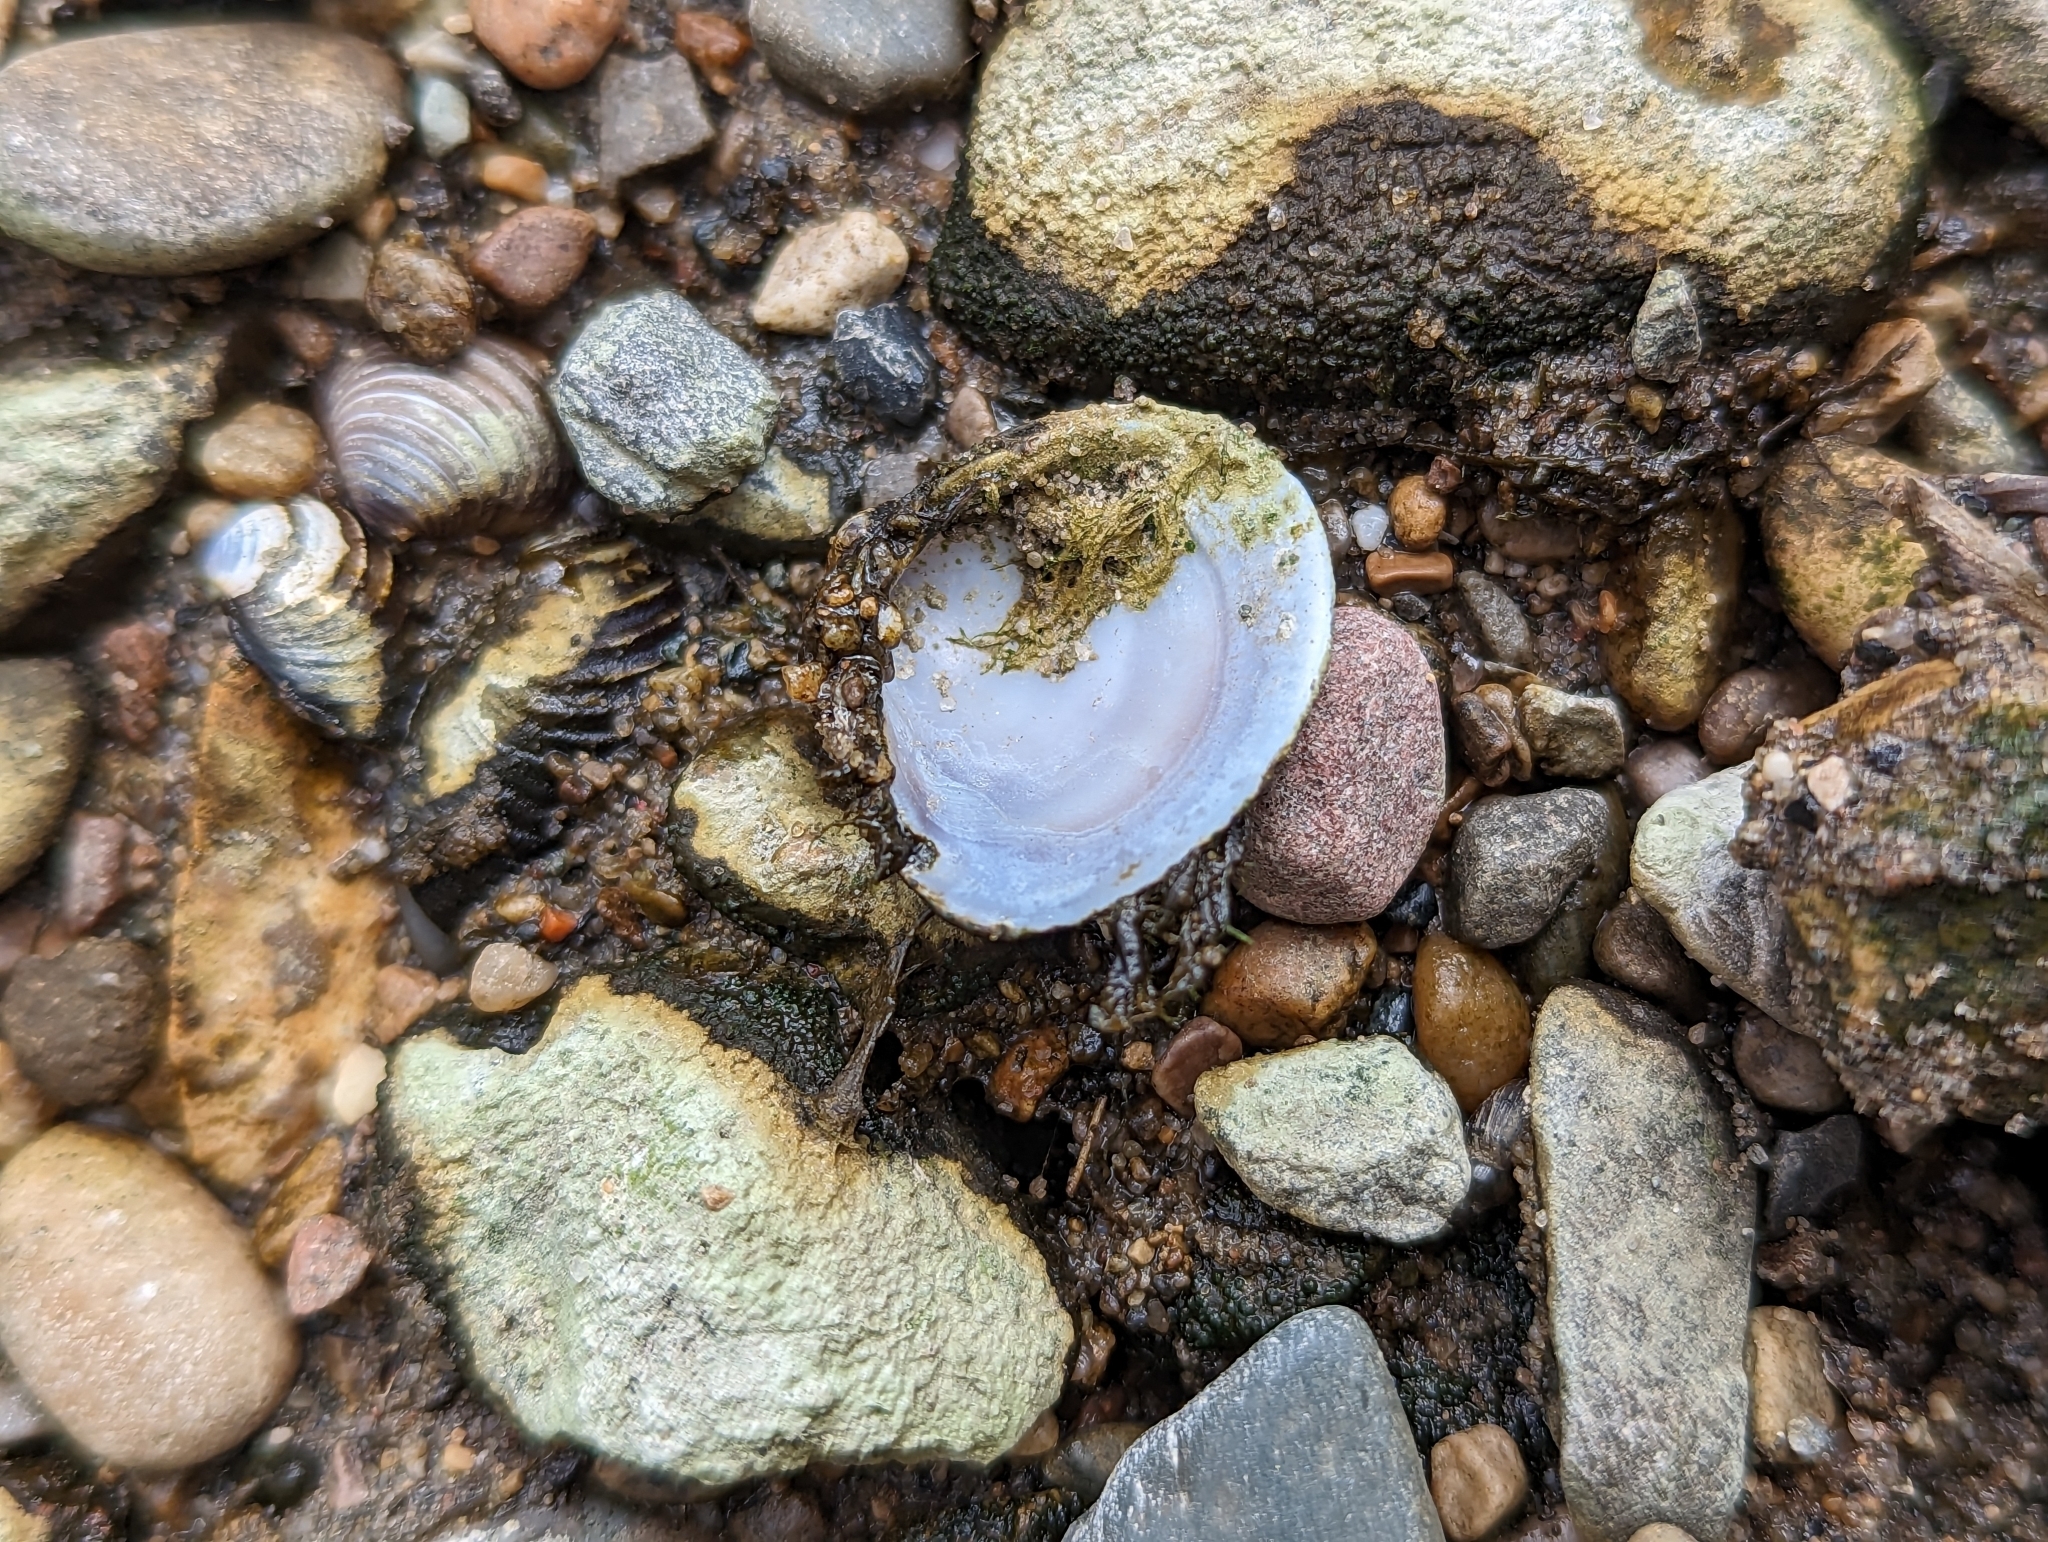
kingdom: Animalia
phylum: Mollusca
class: Bivalvia
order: Venerida
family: Cyrenidae
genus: Corbicula
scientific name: Corbicula fluminea
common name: Asian clam
